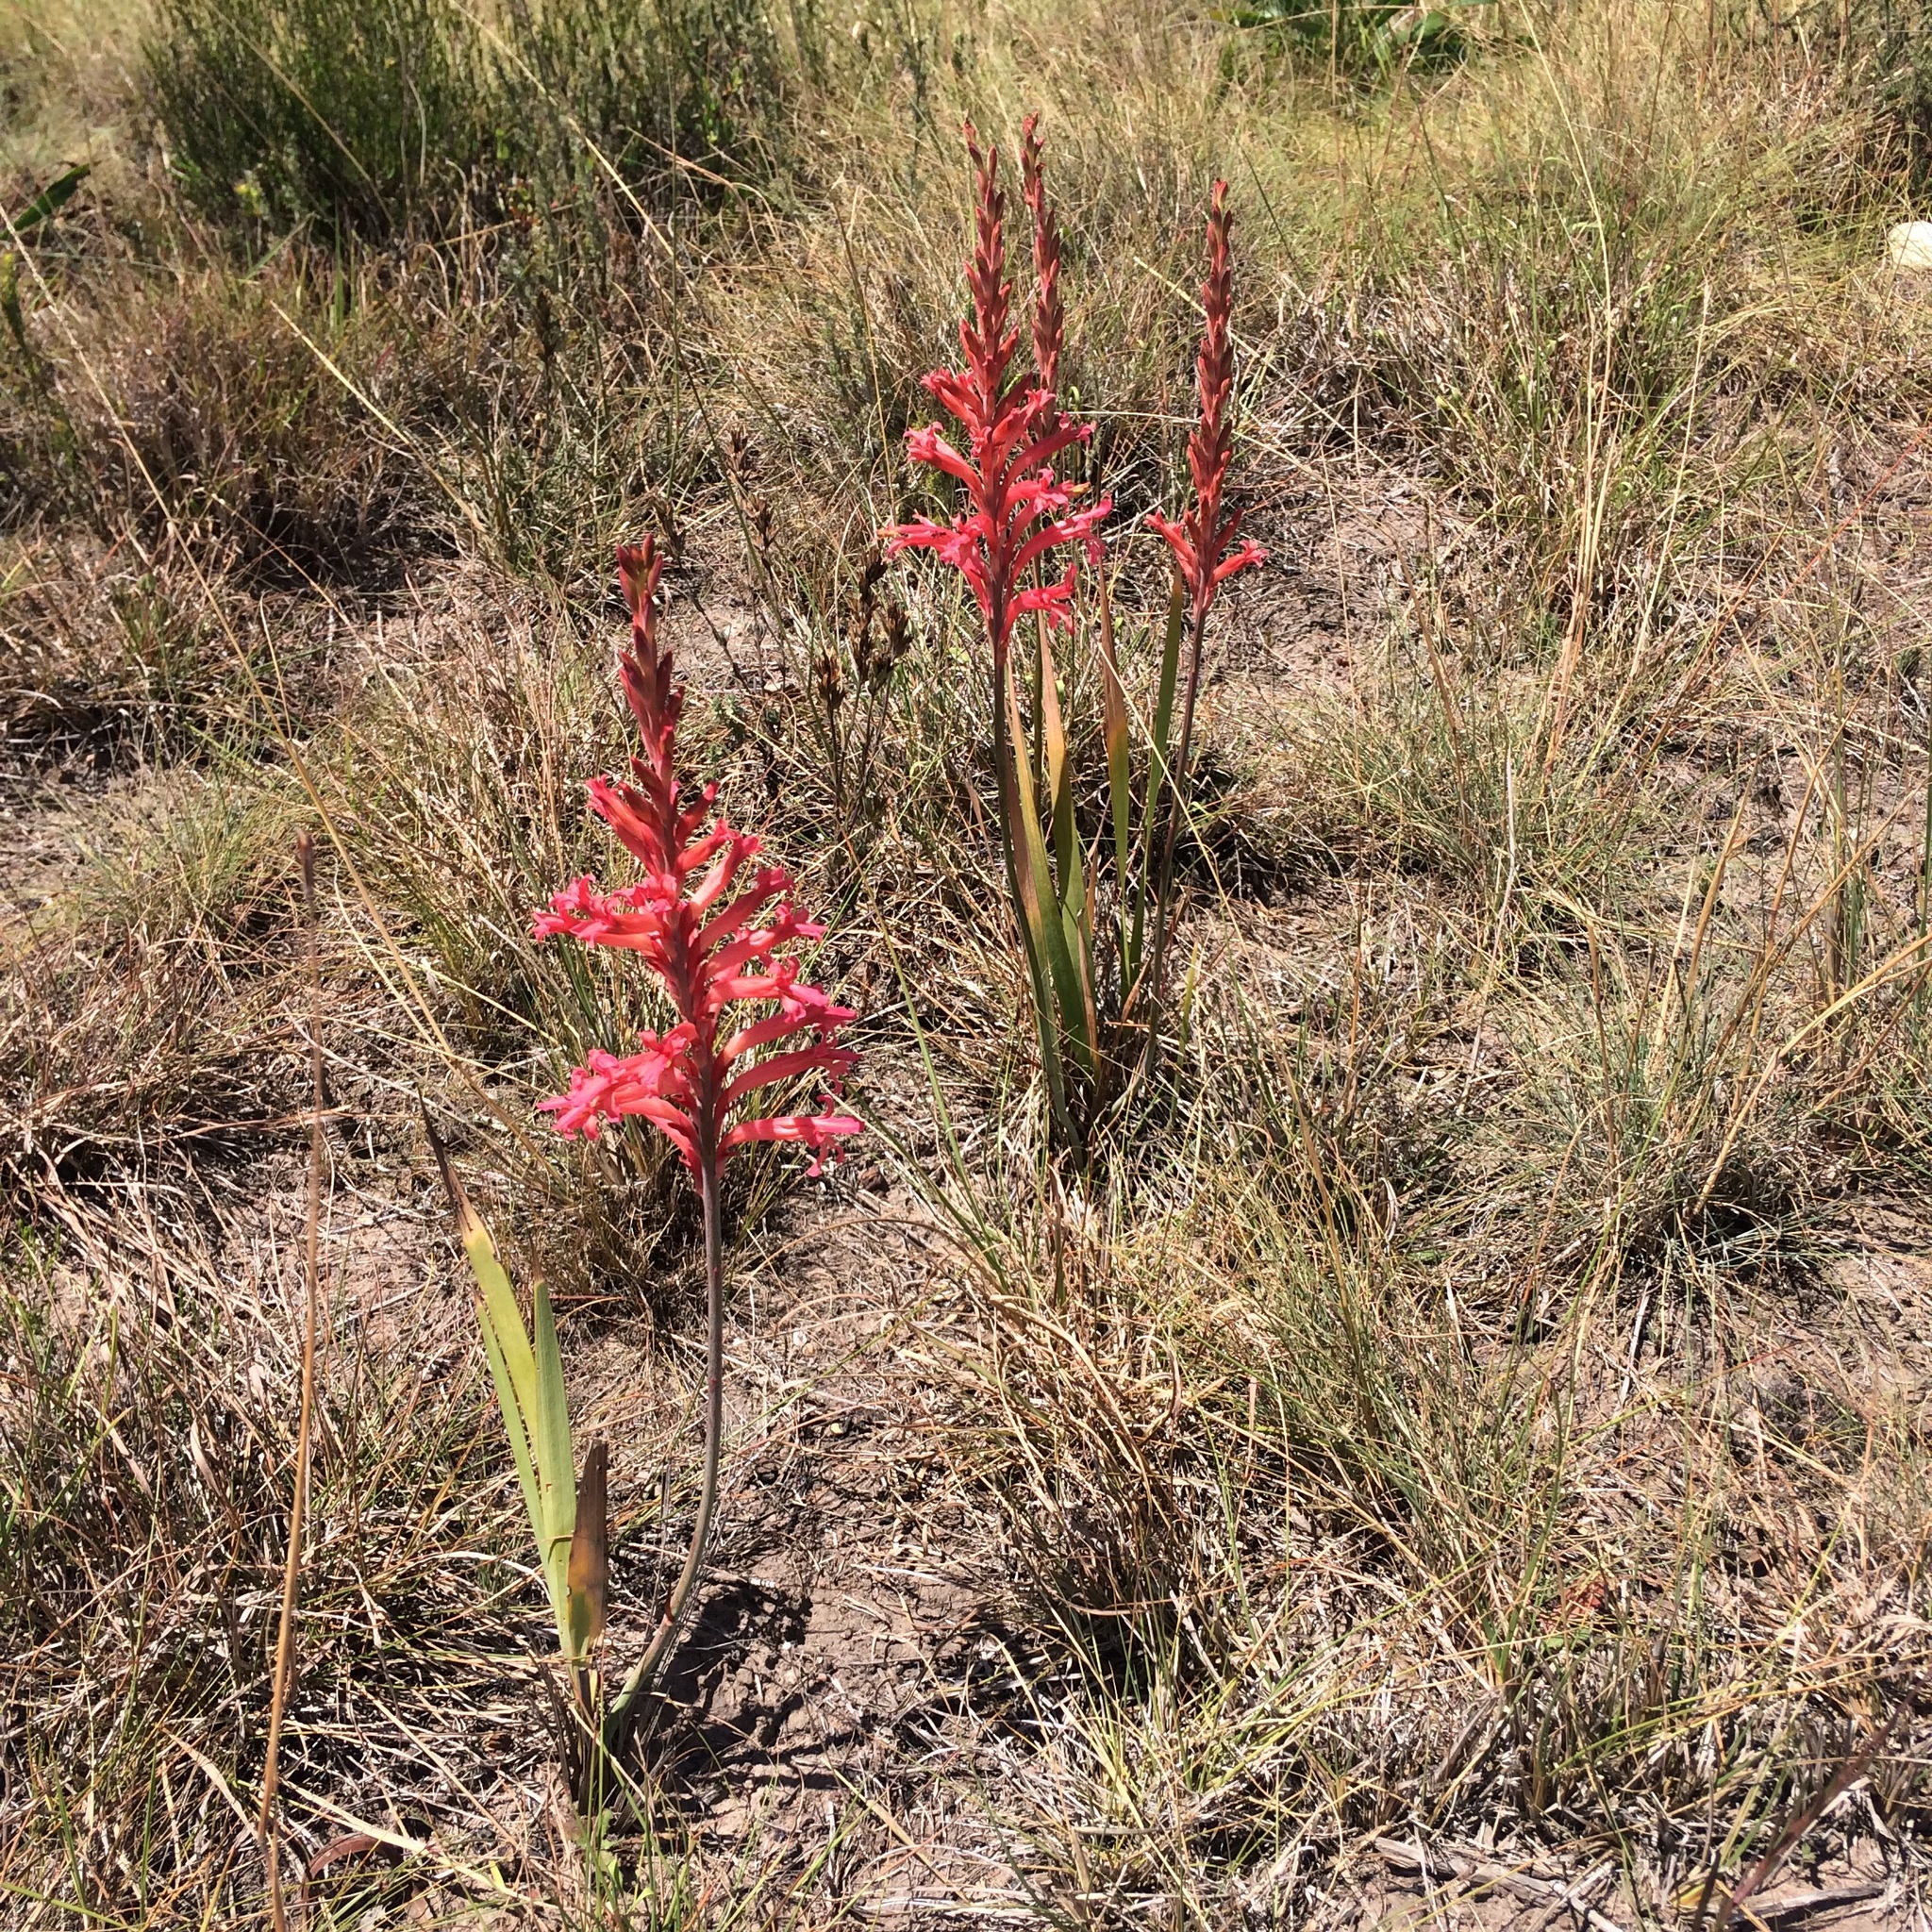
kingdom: Plantae
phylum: Tracheophyta
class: Liliopsida
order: Asparagales
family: Iridaceae
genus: Tritoniopsis
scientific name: Tritoniopsis antholyza
